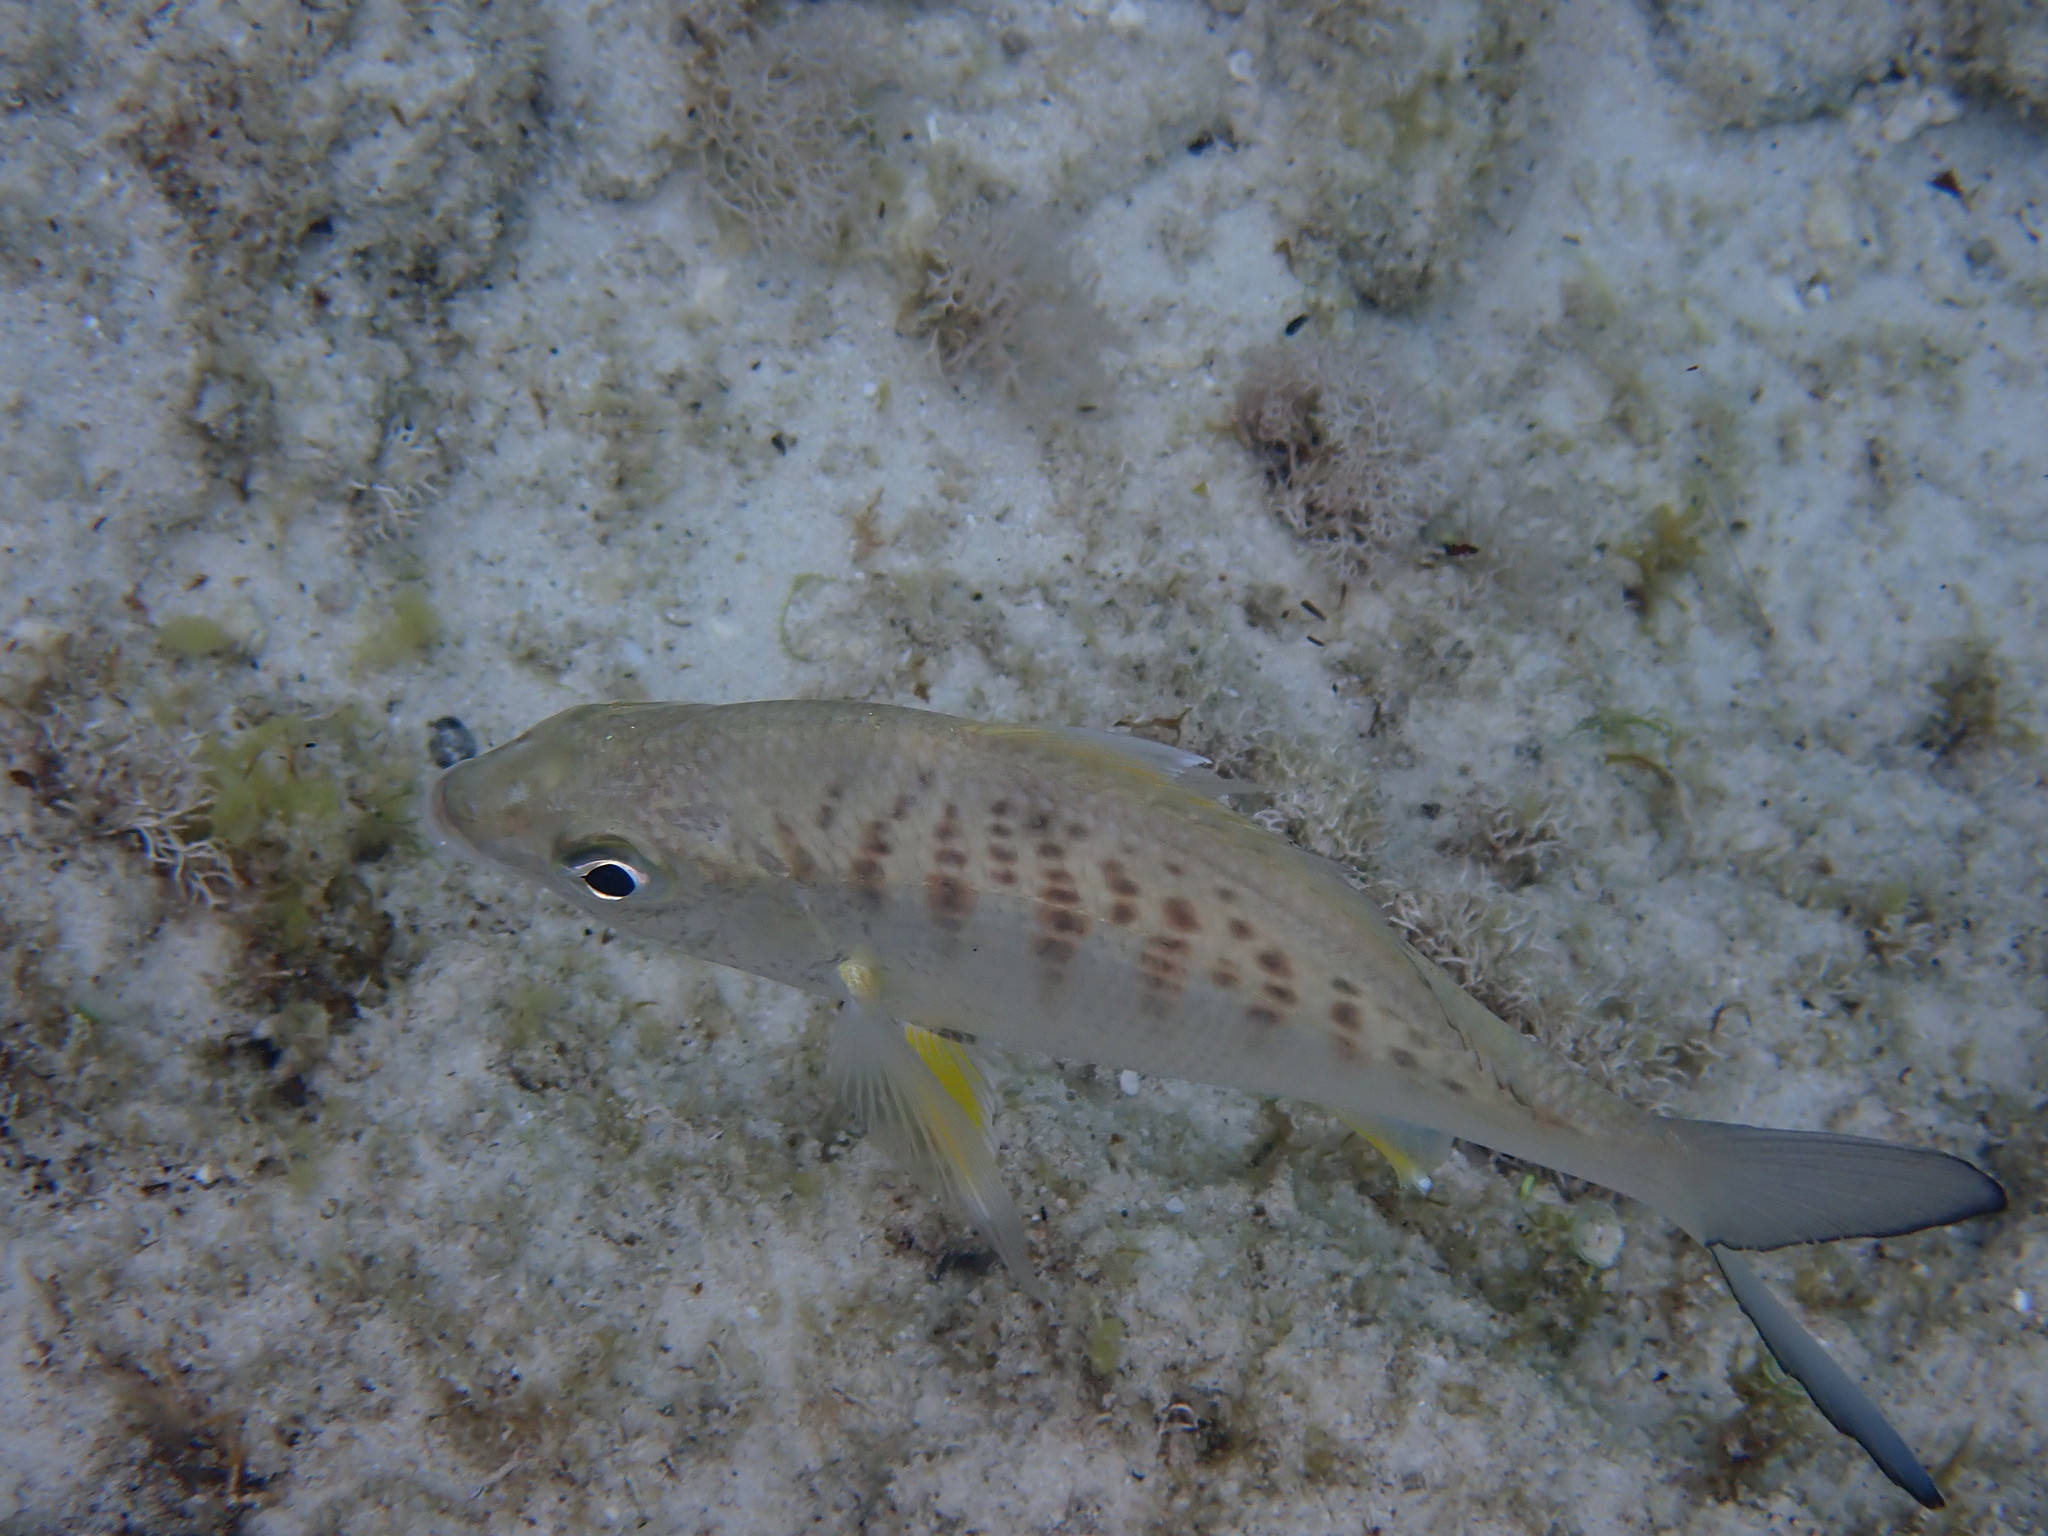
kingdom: Animalia
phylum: Chordata
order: Perciformes
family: Gerreidae
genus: Gerres
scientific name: Gerres cinereus
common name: Hedow
